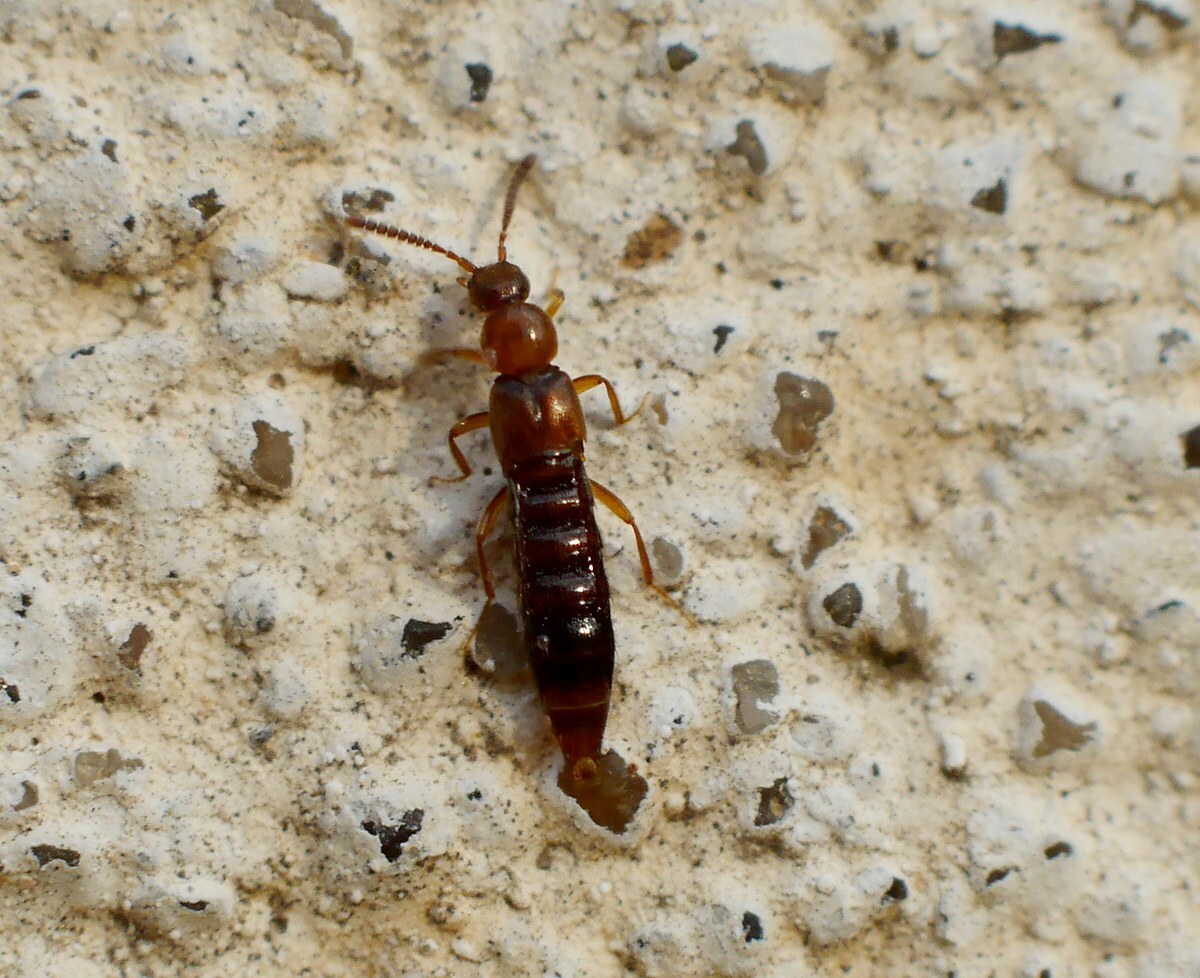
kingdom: Animalia
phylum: Arthropoda
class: Insecta
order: Coleoptera
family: Staphylinidae
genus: Amarochara
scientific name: Amarochara forticornis
